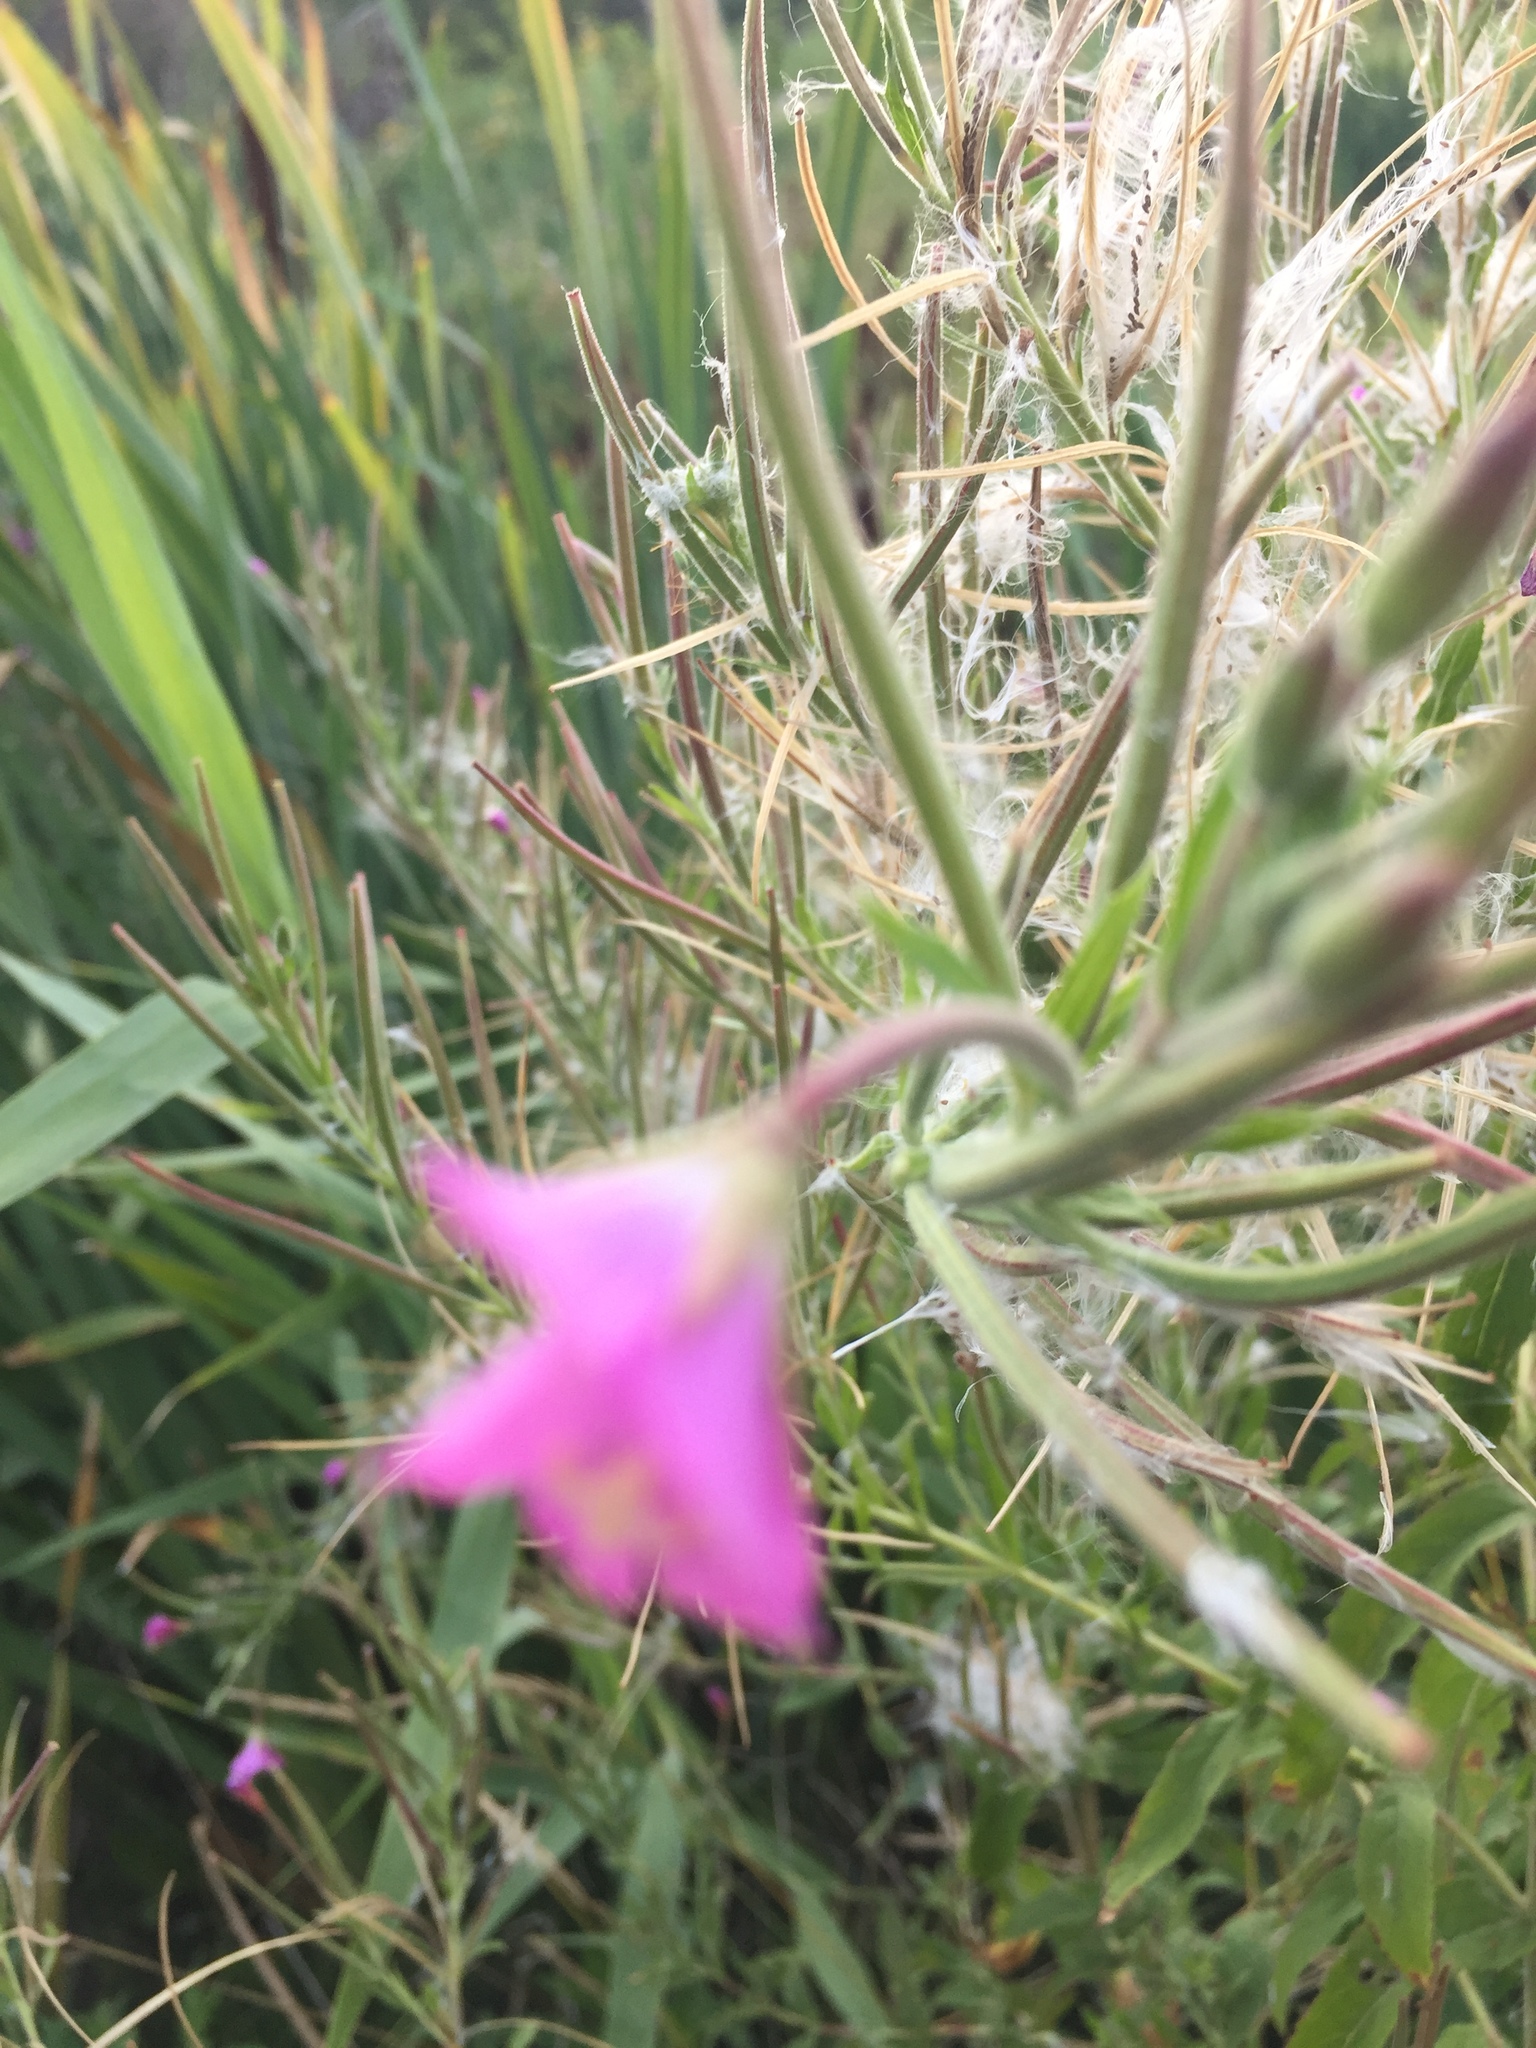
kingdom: Plantae
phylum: Tracheophyta
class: Magnoliopsida
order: Myrtales
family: Onagraceae
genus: Epilobium
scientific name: Epilobium hirsutum
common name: Great willowherb
